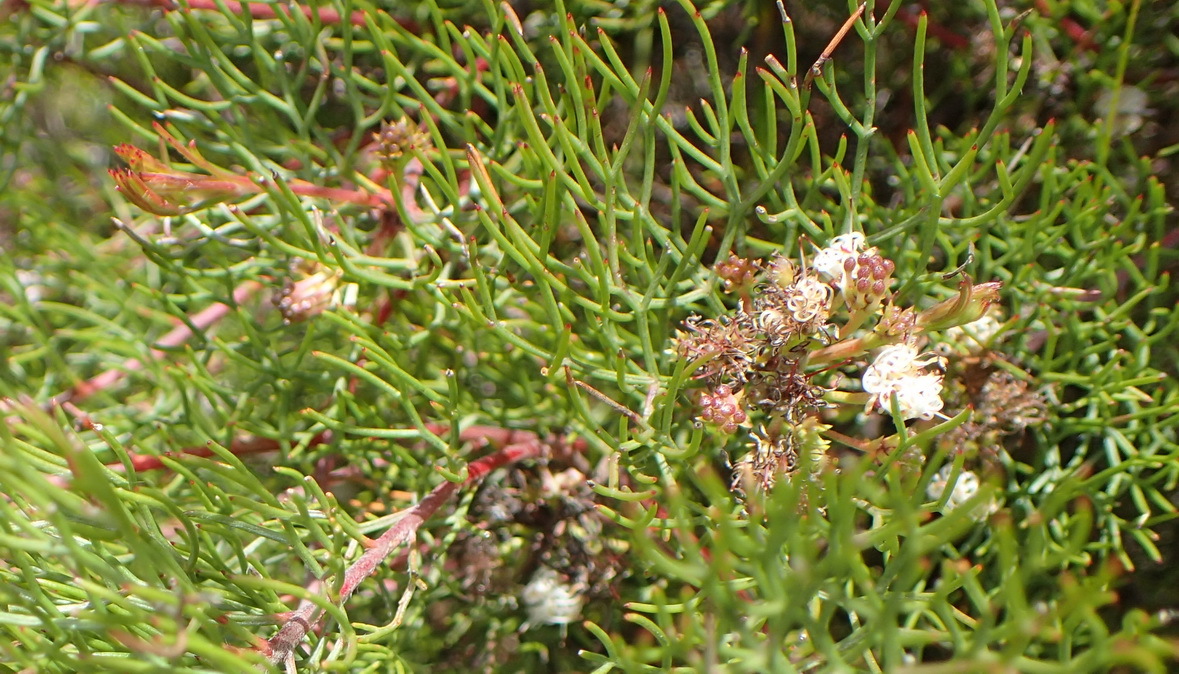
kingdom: Plantae
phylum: Tracheophyta
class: Magnoliopsida
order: Proteales
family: Proteaceae
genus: Serruria
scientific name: Serruria fasciflora
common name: Common pin spiderhead
